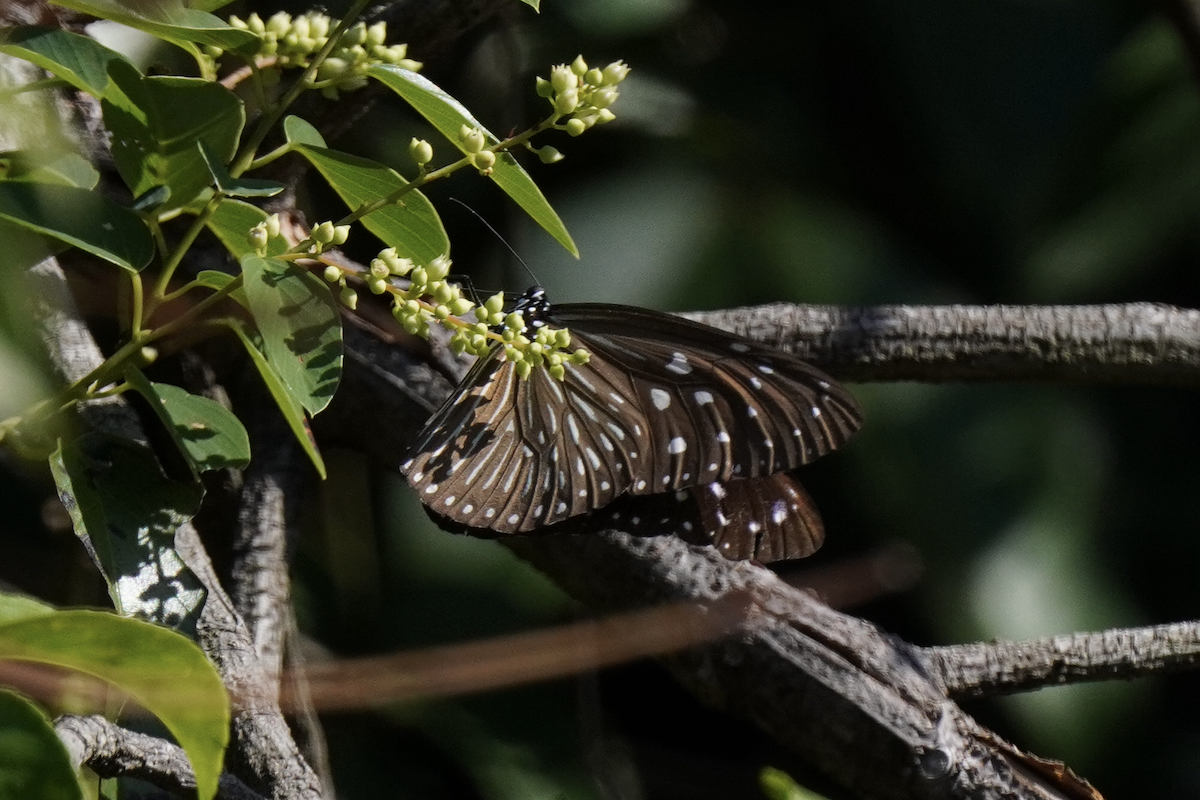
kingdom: Animalia
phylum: Arthropoda
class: Insecta
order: Lepidoptera
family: Nymphalidae
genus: Euploea
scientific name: Euploea mulciber
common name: Striped blue crow butterfly
